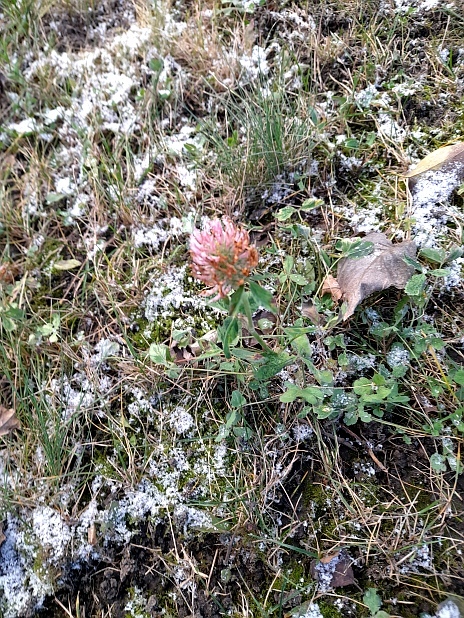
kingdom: Plantae
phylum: Tracheophyta
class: Magnoliopsida
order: Fabales
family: Fabaceae
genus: Trifolium
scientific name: Trifolium pratense
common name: Red clover
